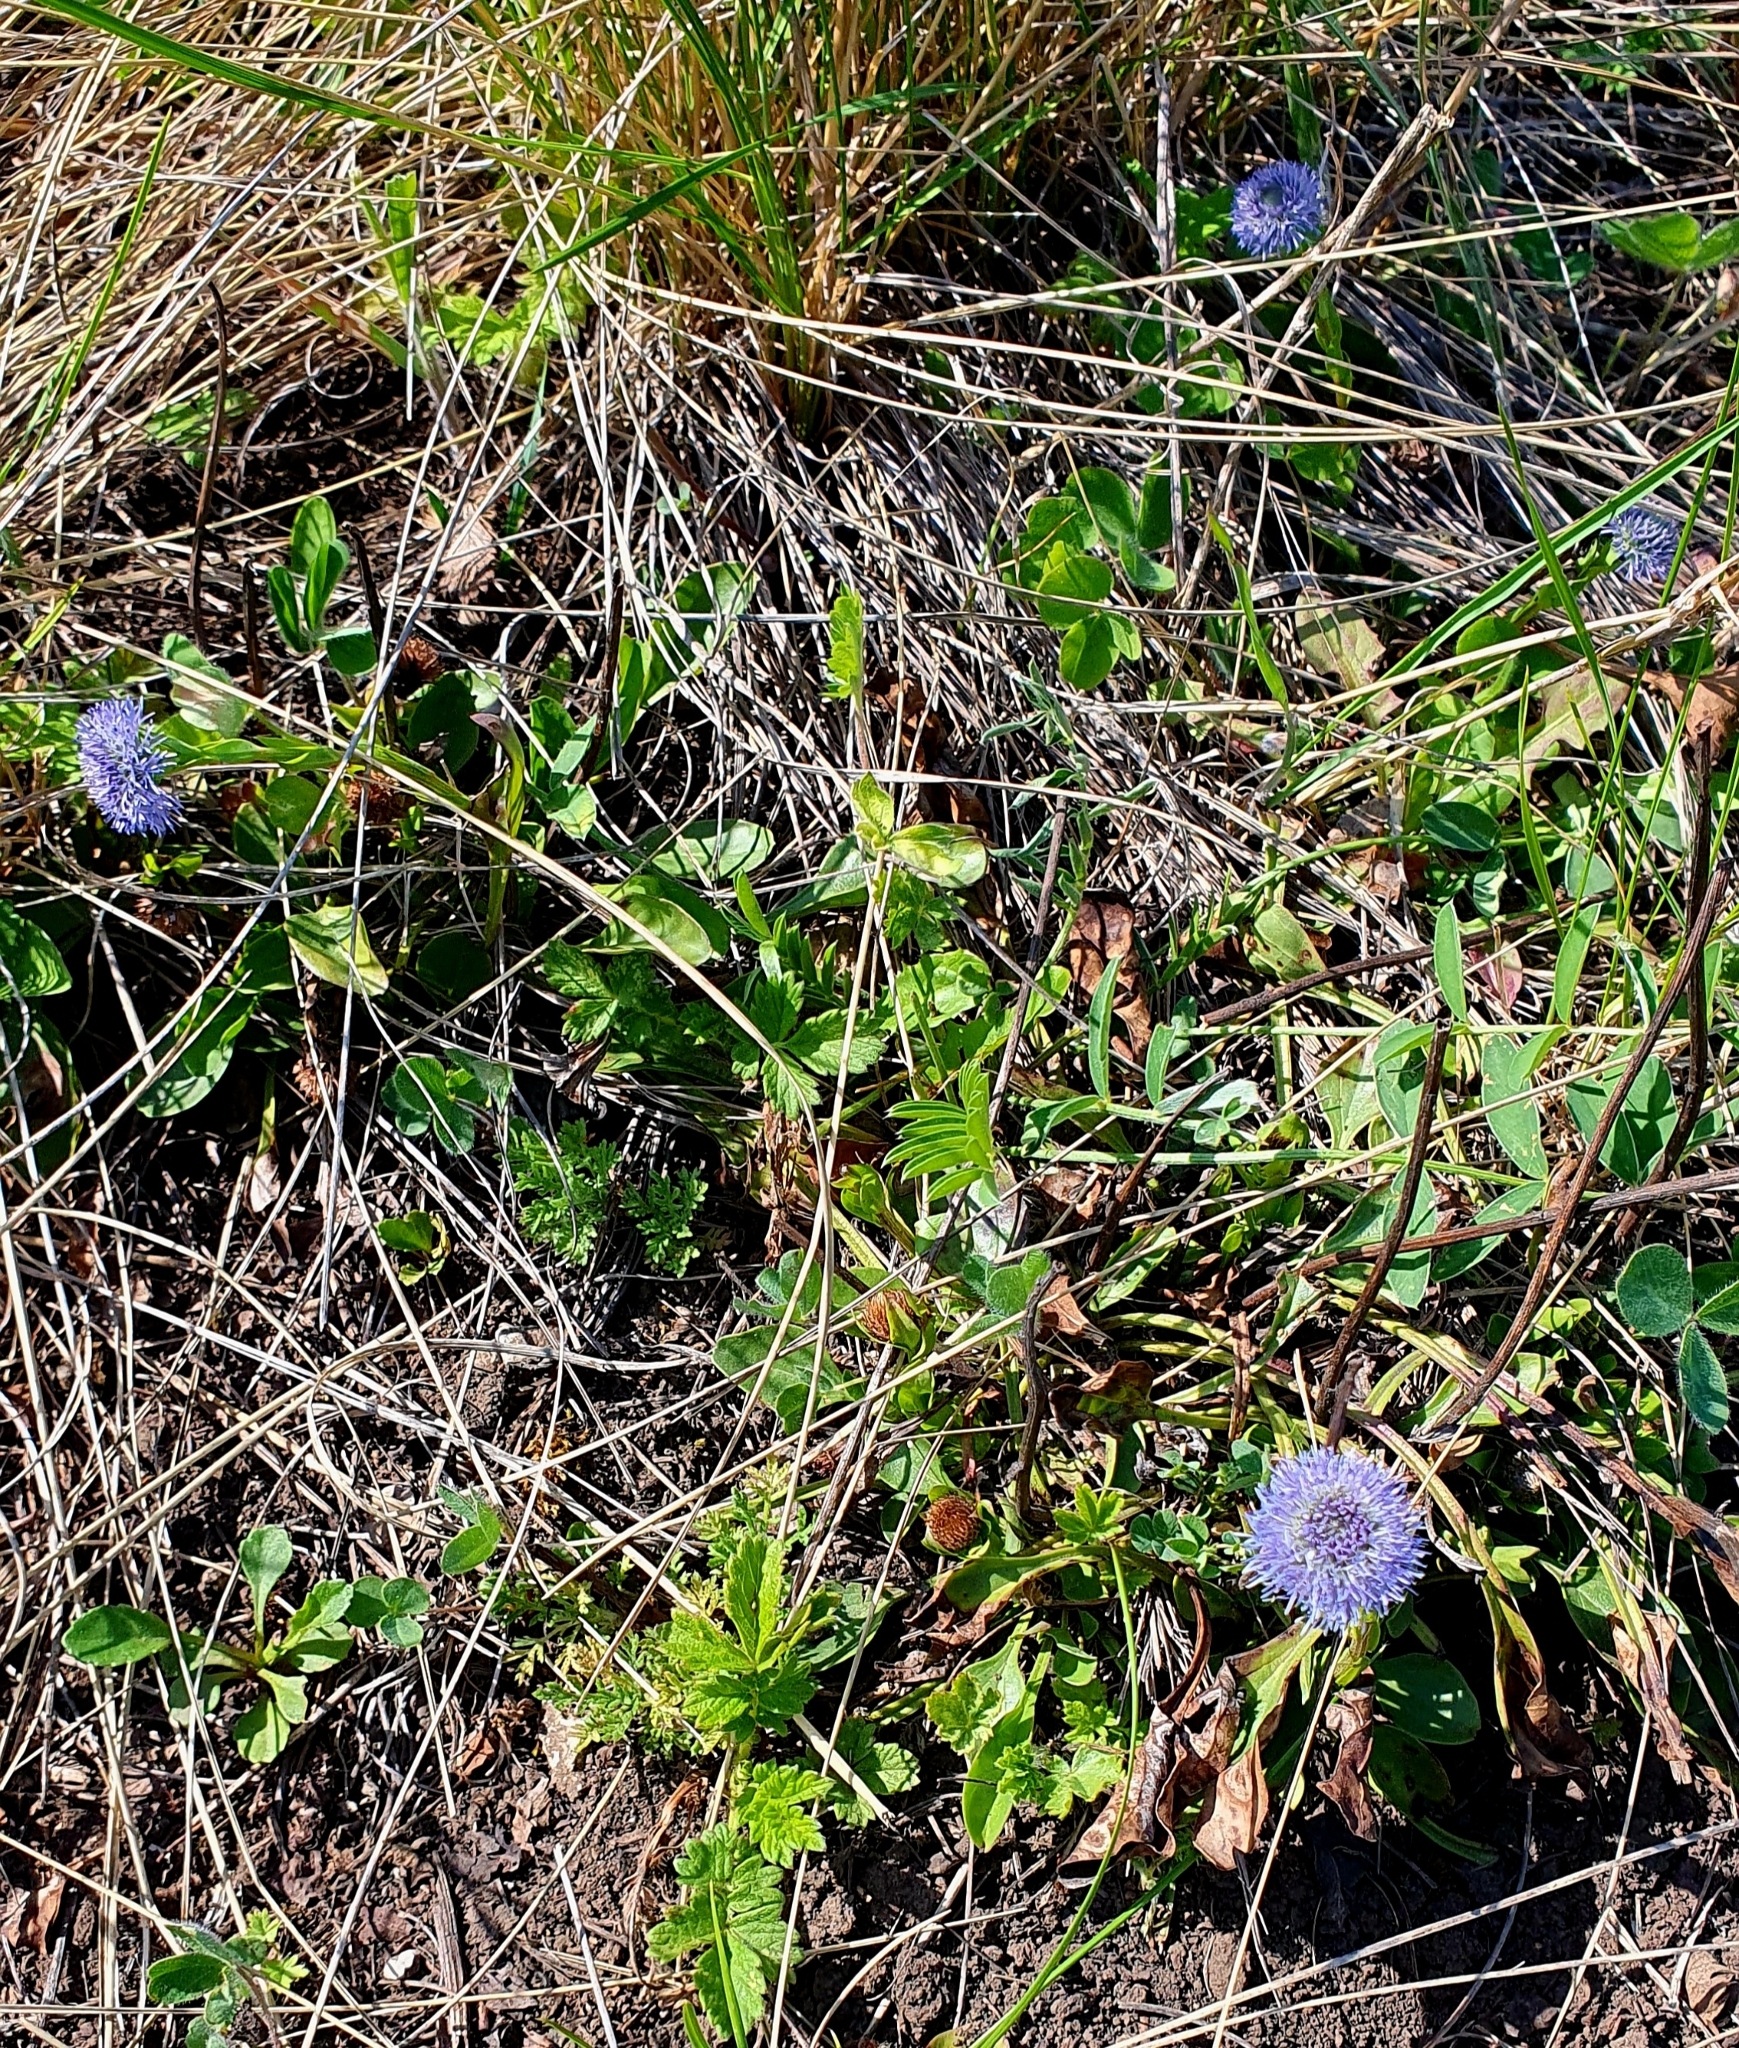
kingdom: Plantae
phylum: Tracheophyta
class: Magnoliopsida
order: Lamiales
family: Plantaginaceae
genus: Globularia
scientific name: Globularia bisnagarica
